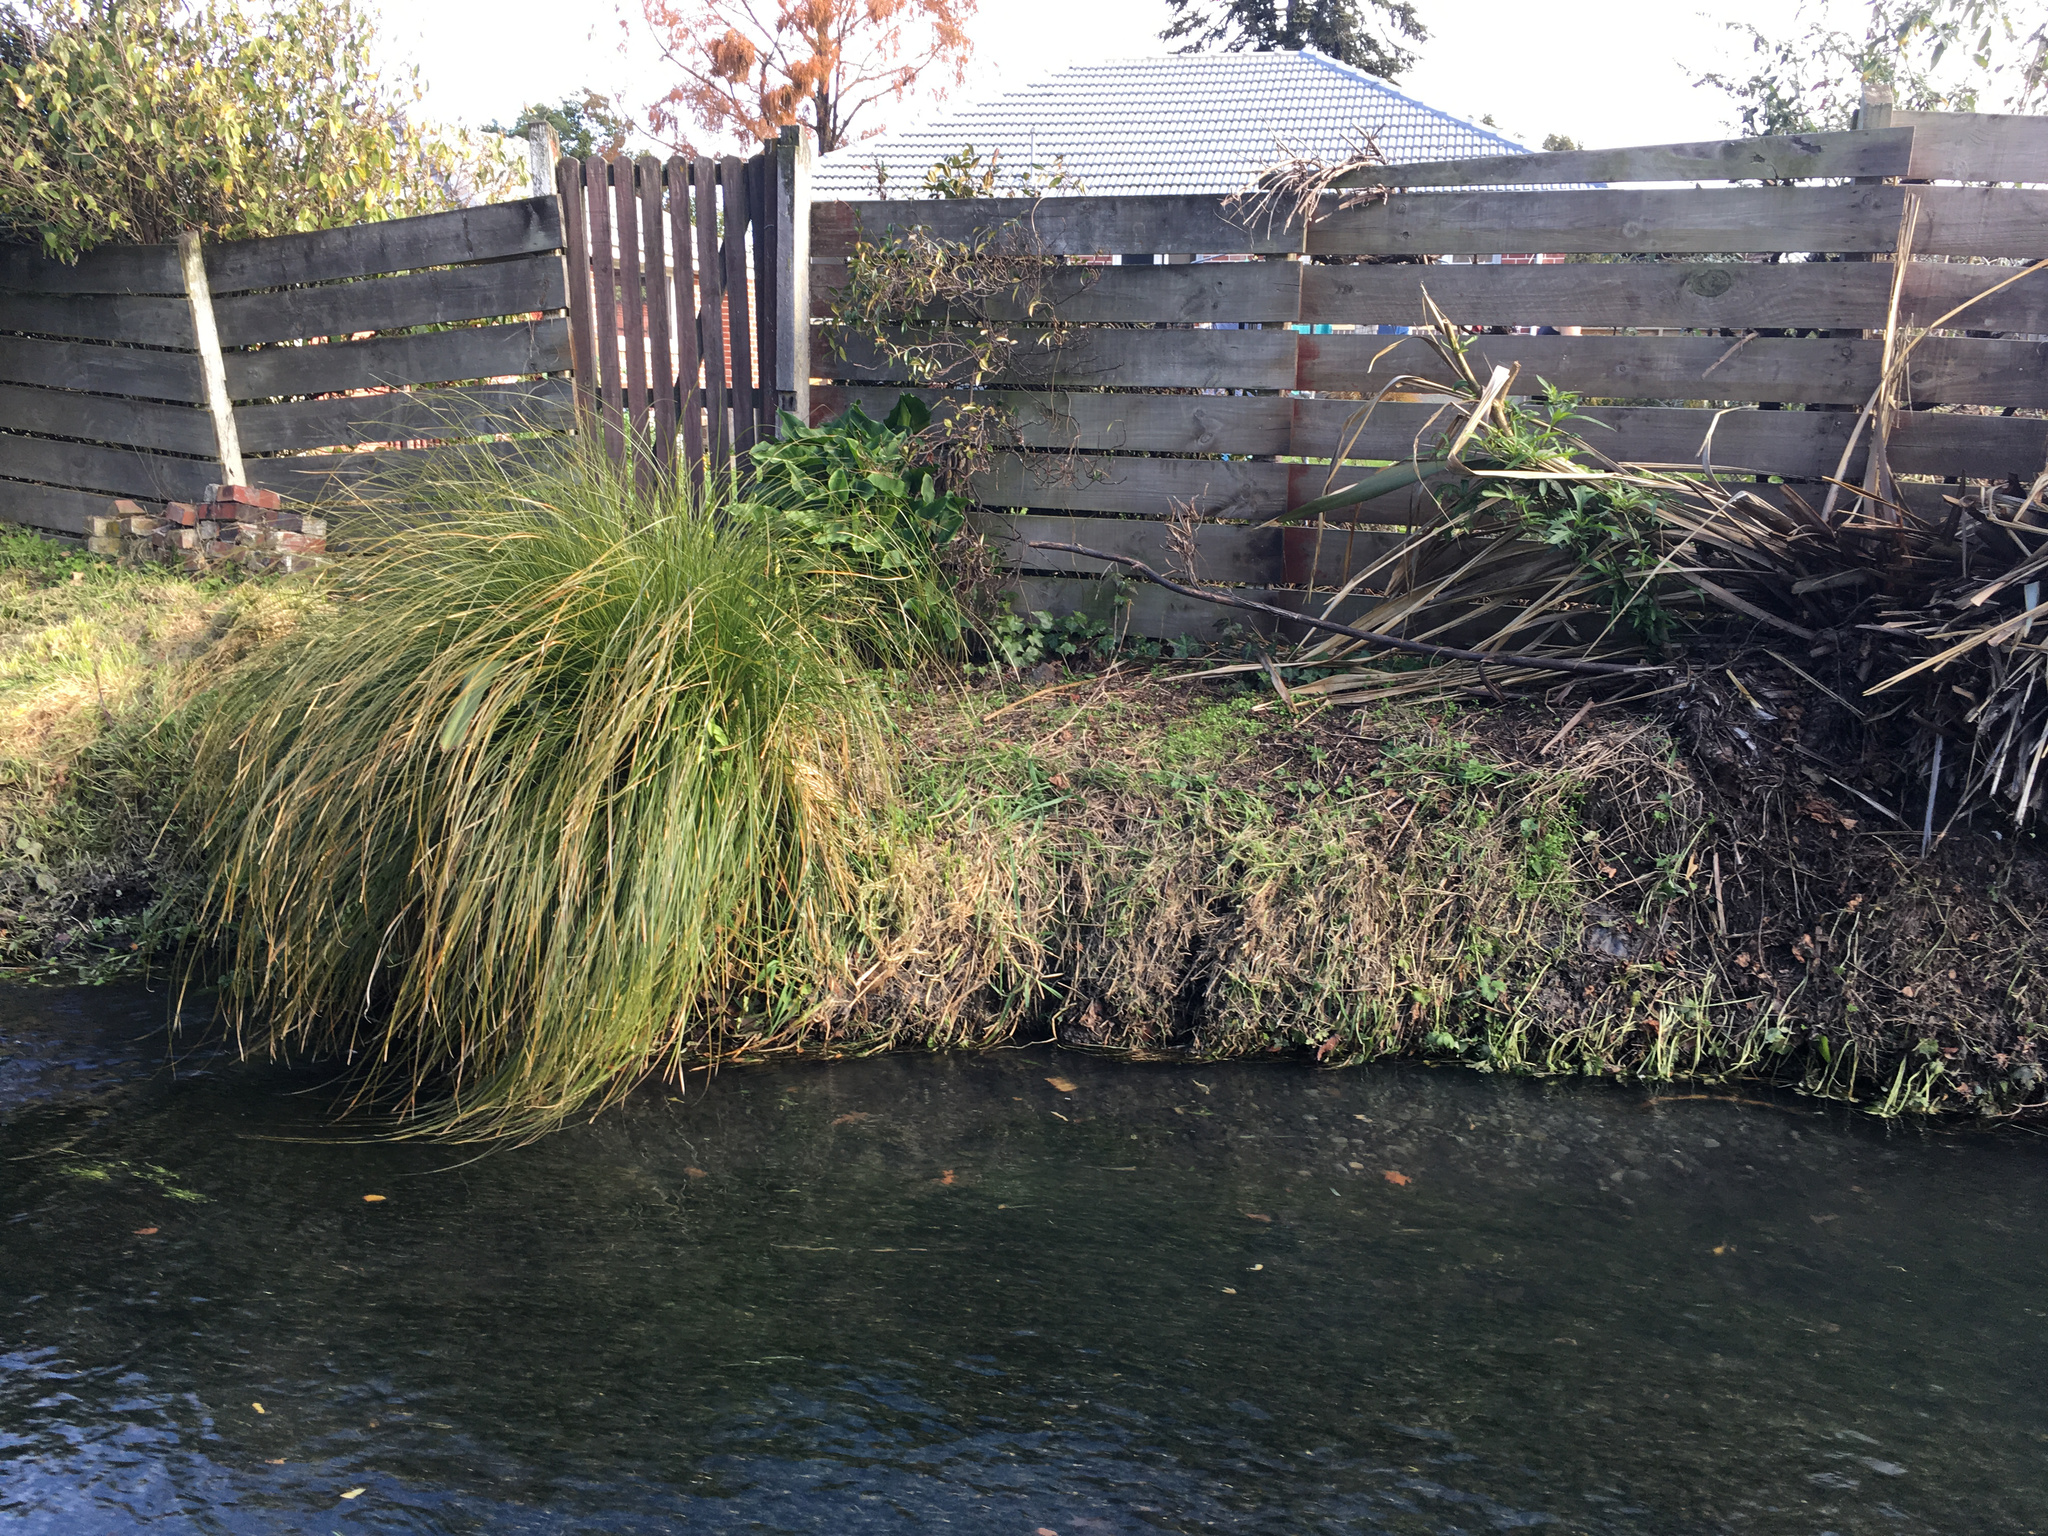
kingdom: Plantae
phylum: Tracheophyta
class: Liliopsida
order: Alismatales
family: Araceae
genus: Zantedeschia
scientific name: Zantedeschia aethiopica
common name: Altar-lily
